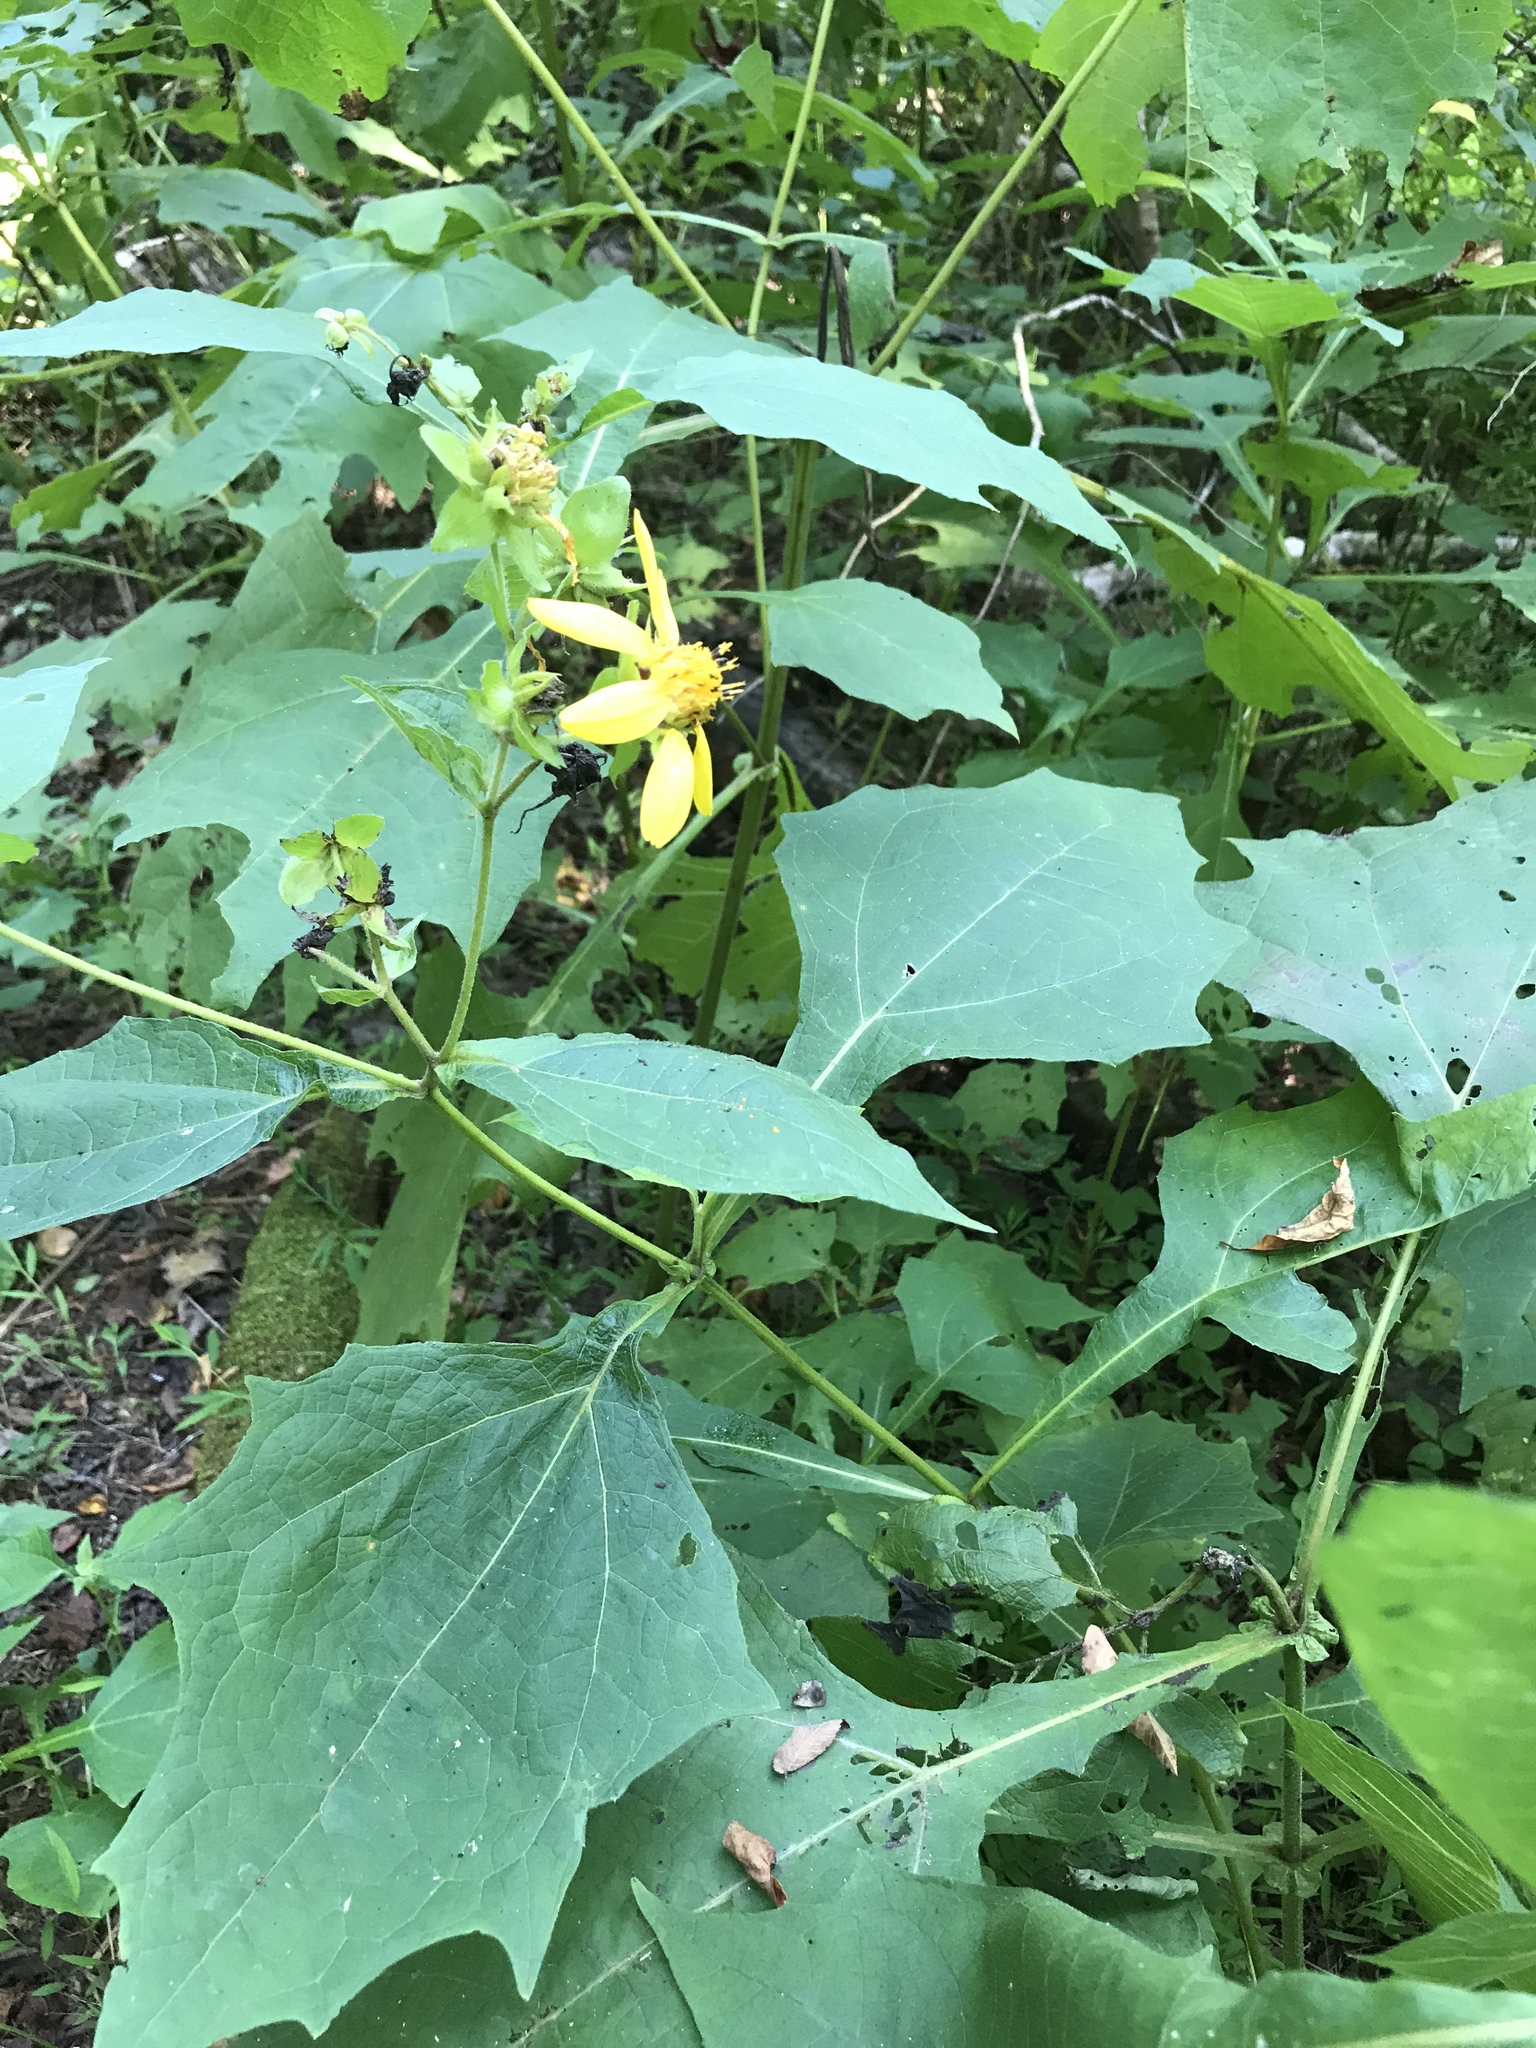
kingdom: Plantae
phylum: Tracheophyta
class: Magnoliopsida
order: Asterales
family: Asteraceae
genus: Smallanthus
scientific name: Smallanthus uvedalia
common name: Bear's-foot
